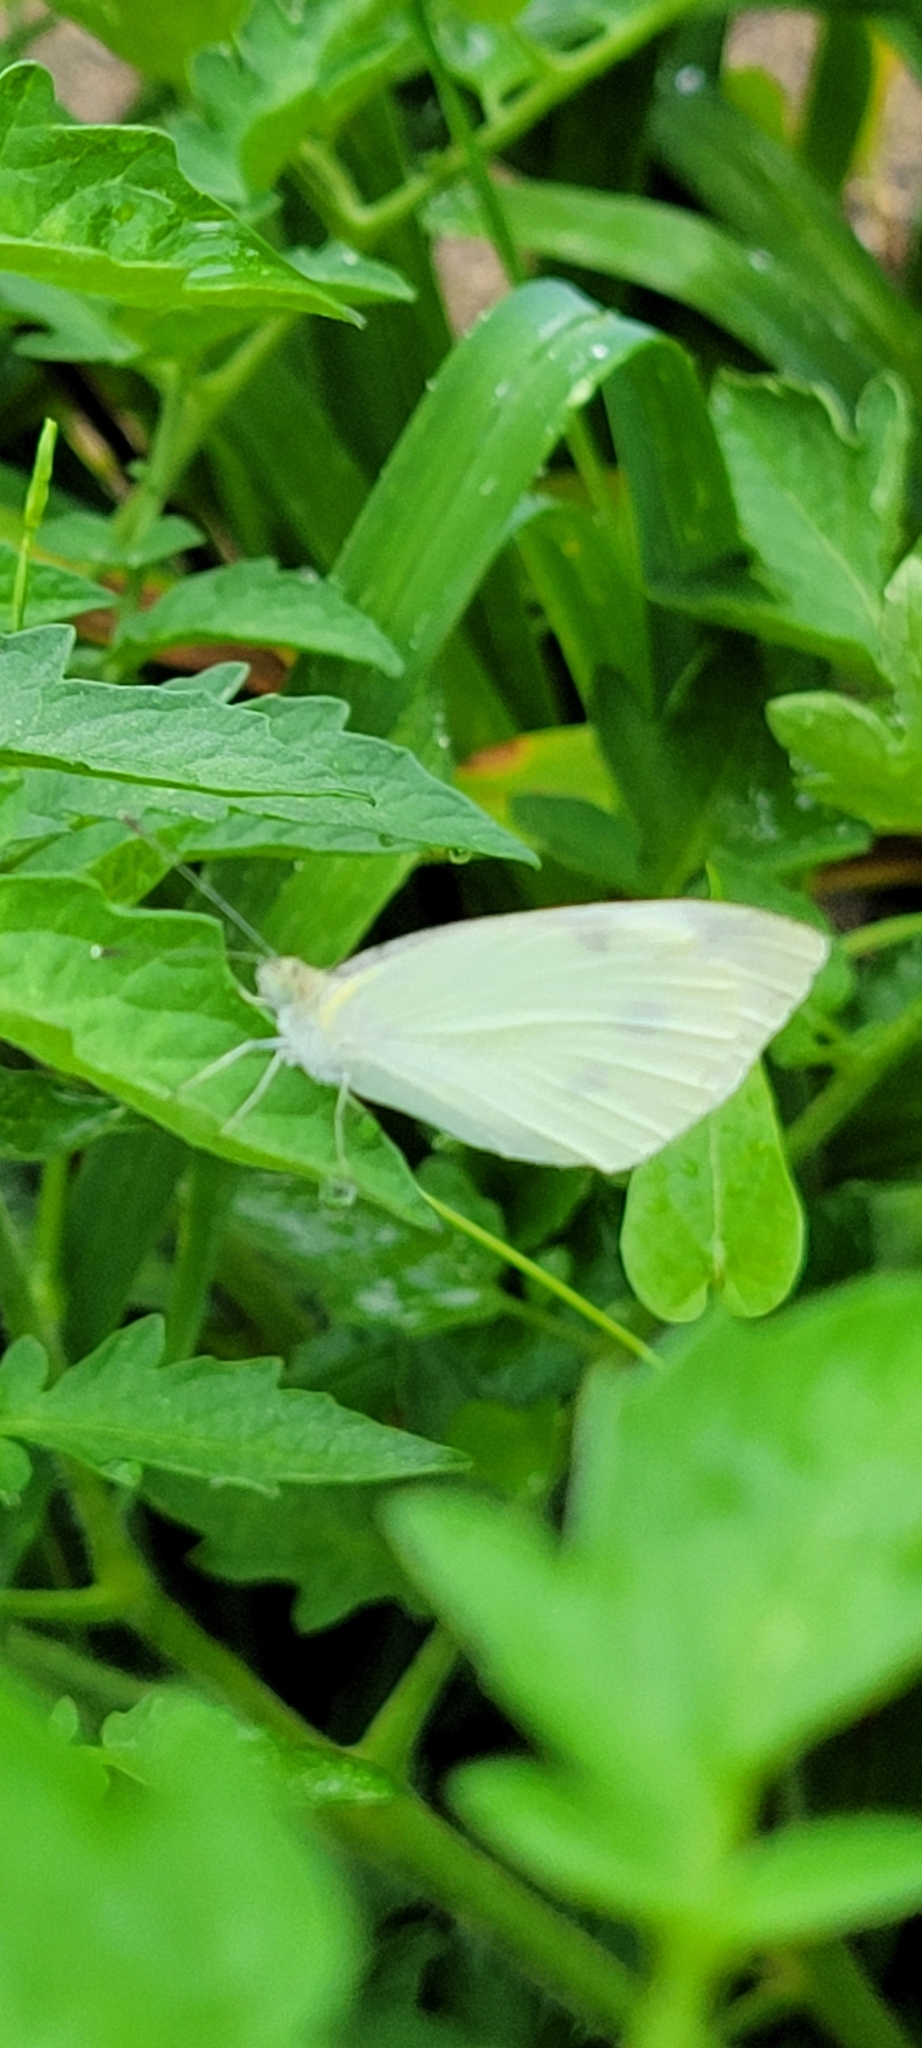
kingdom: Animalia
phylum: Arthropoda
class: Insecta
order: Lepidoptera
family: Pieridae
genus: Pieris
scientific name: Pieris rapae
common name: Small white
